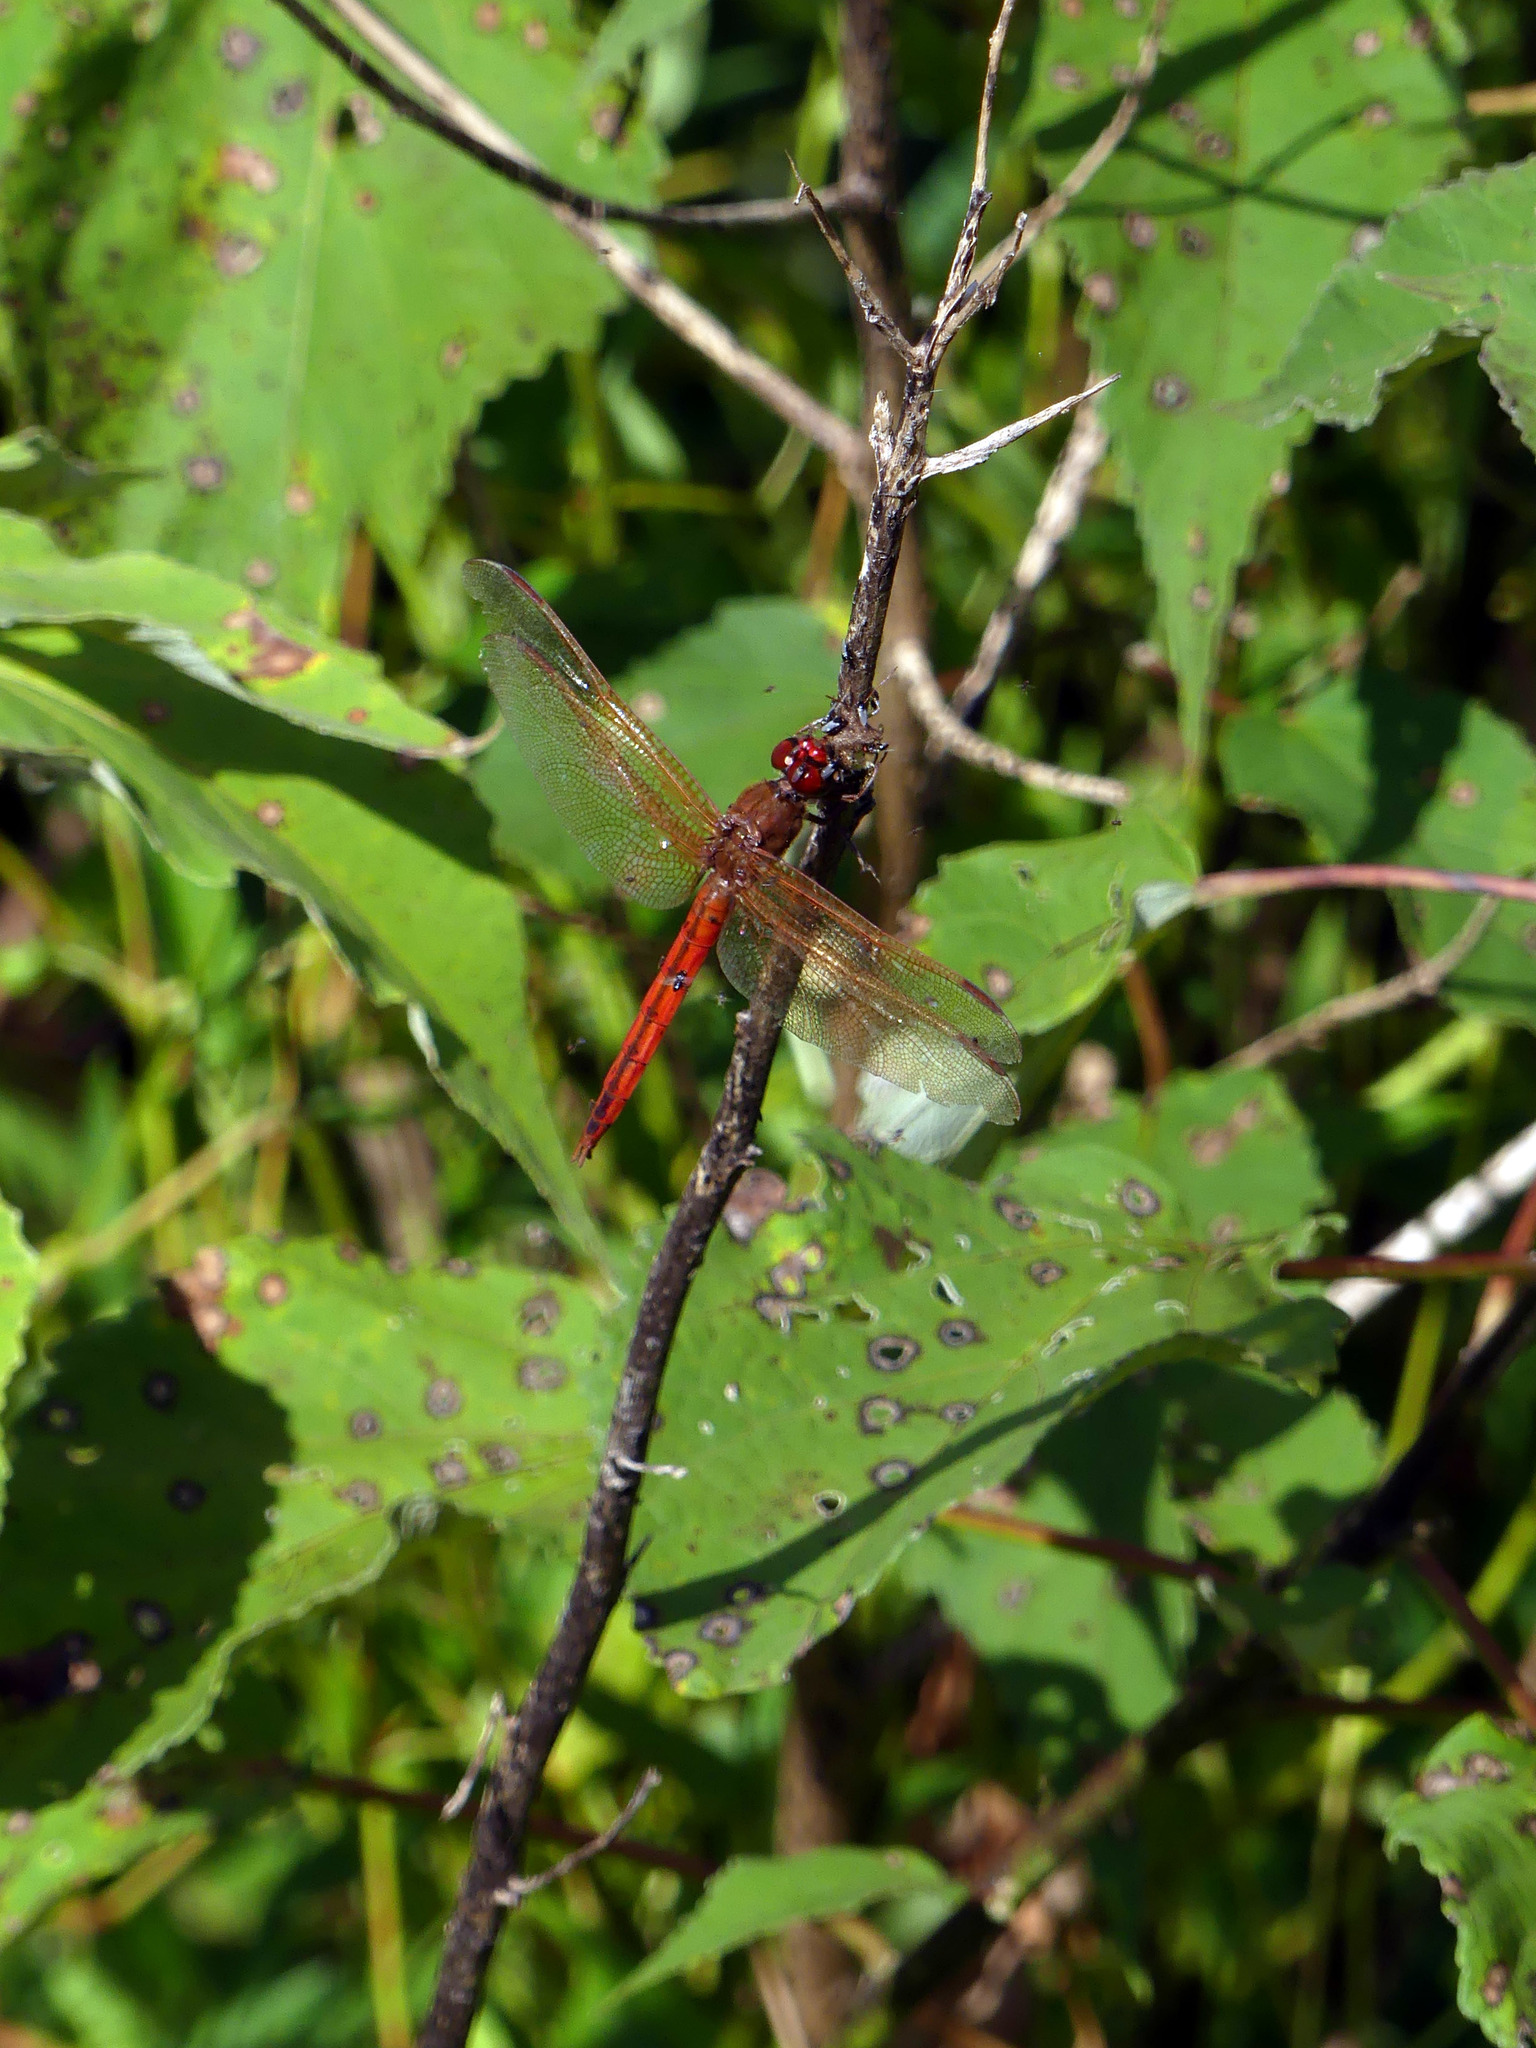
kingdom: Animalia
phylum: Arthropoda
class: Insecta
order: Odonata
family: Libellulidae
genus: Libellula
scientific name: Libellula needhami
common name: Needham's skimmer
